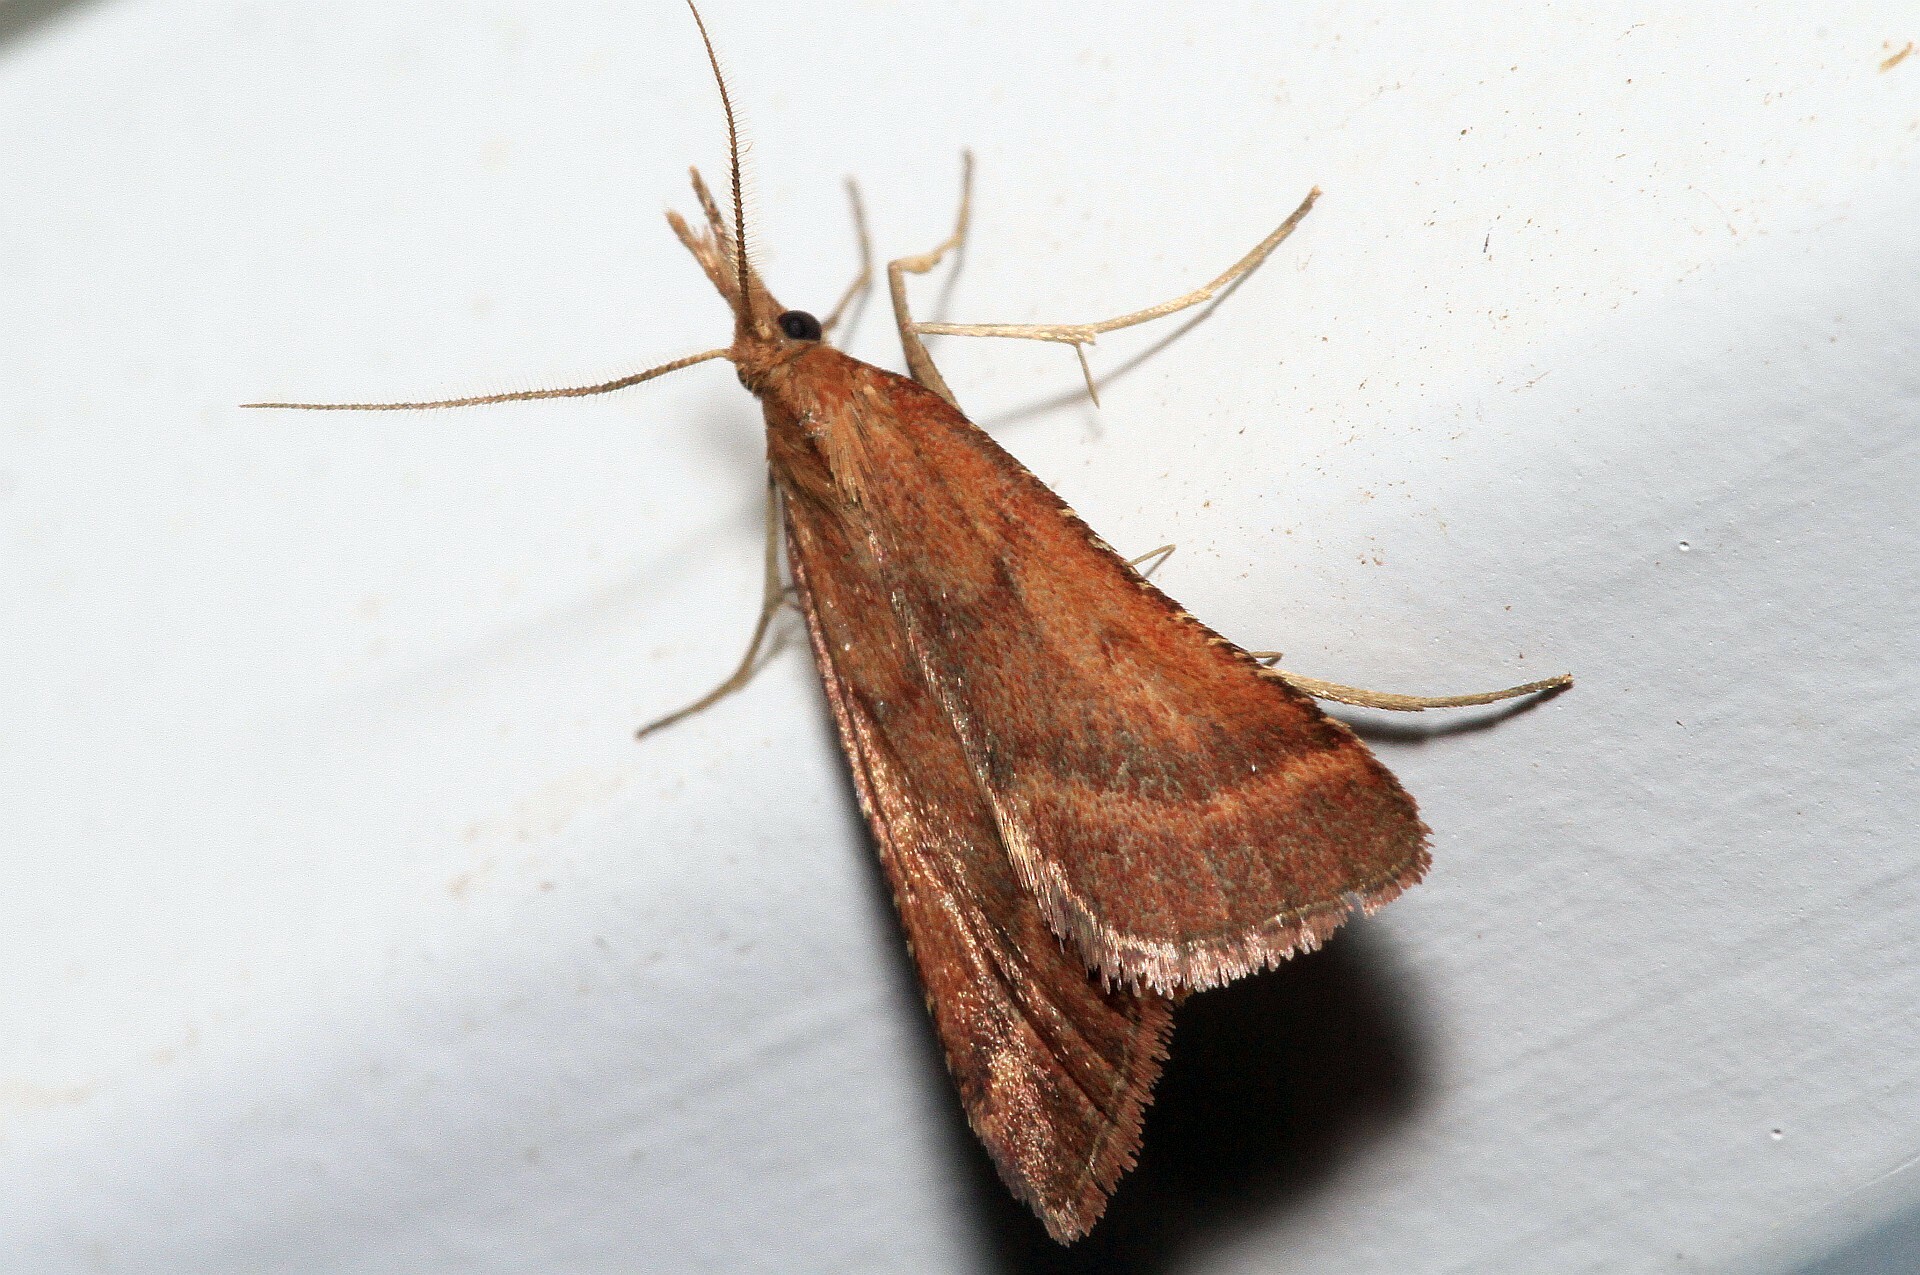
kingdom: Animalia
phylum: Arthropoda
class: Insecta
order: Lepidoptera
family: Pyralidae
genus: Synaphe
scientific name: Synaphe punctalis
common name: Long-legged tabby
